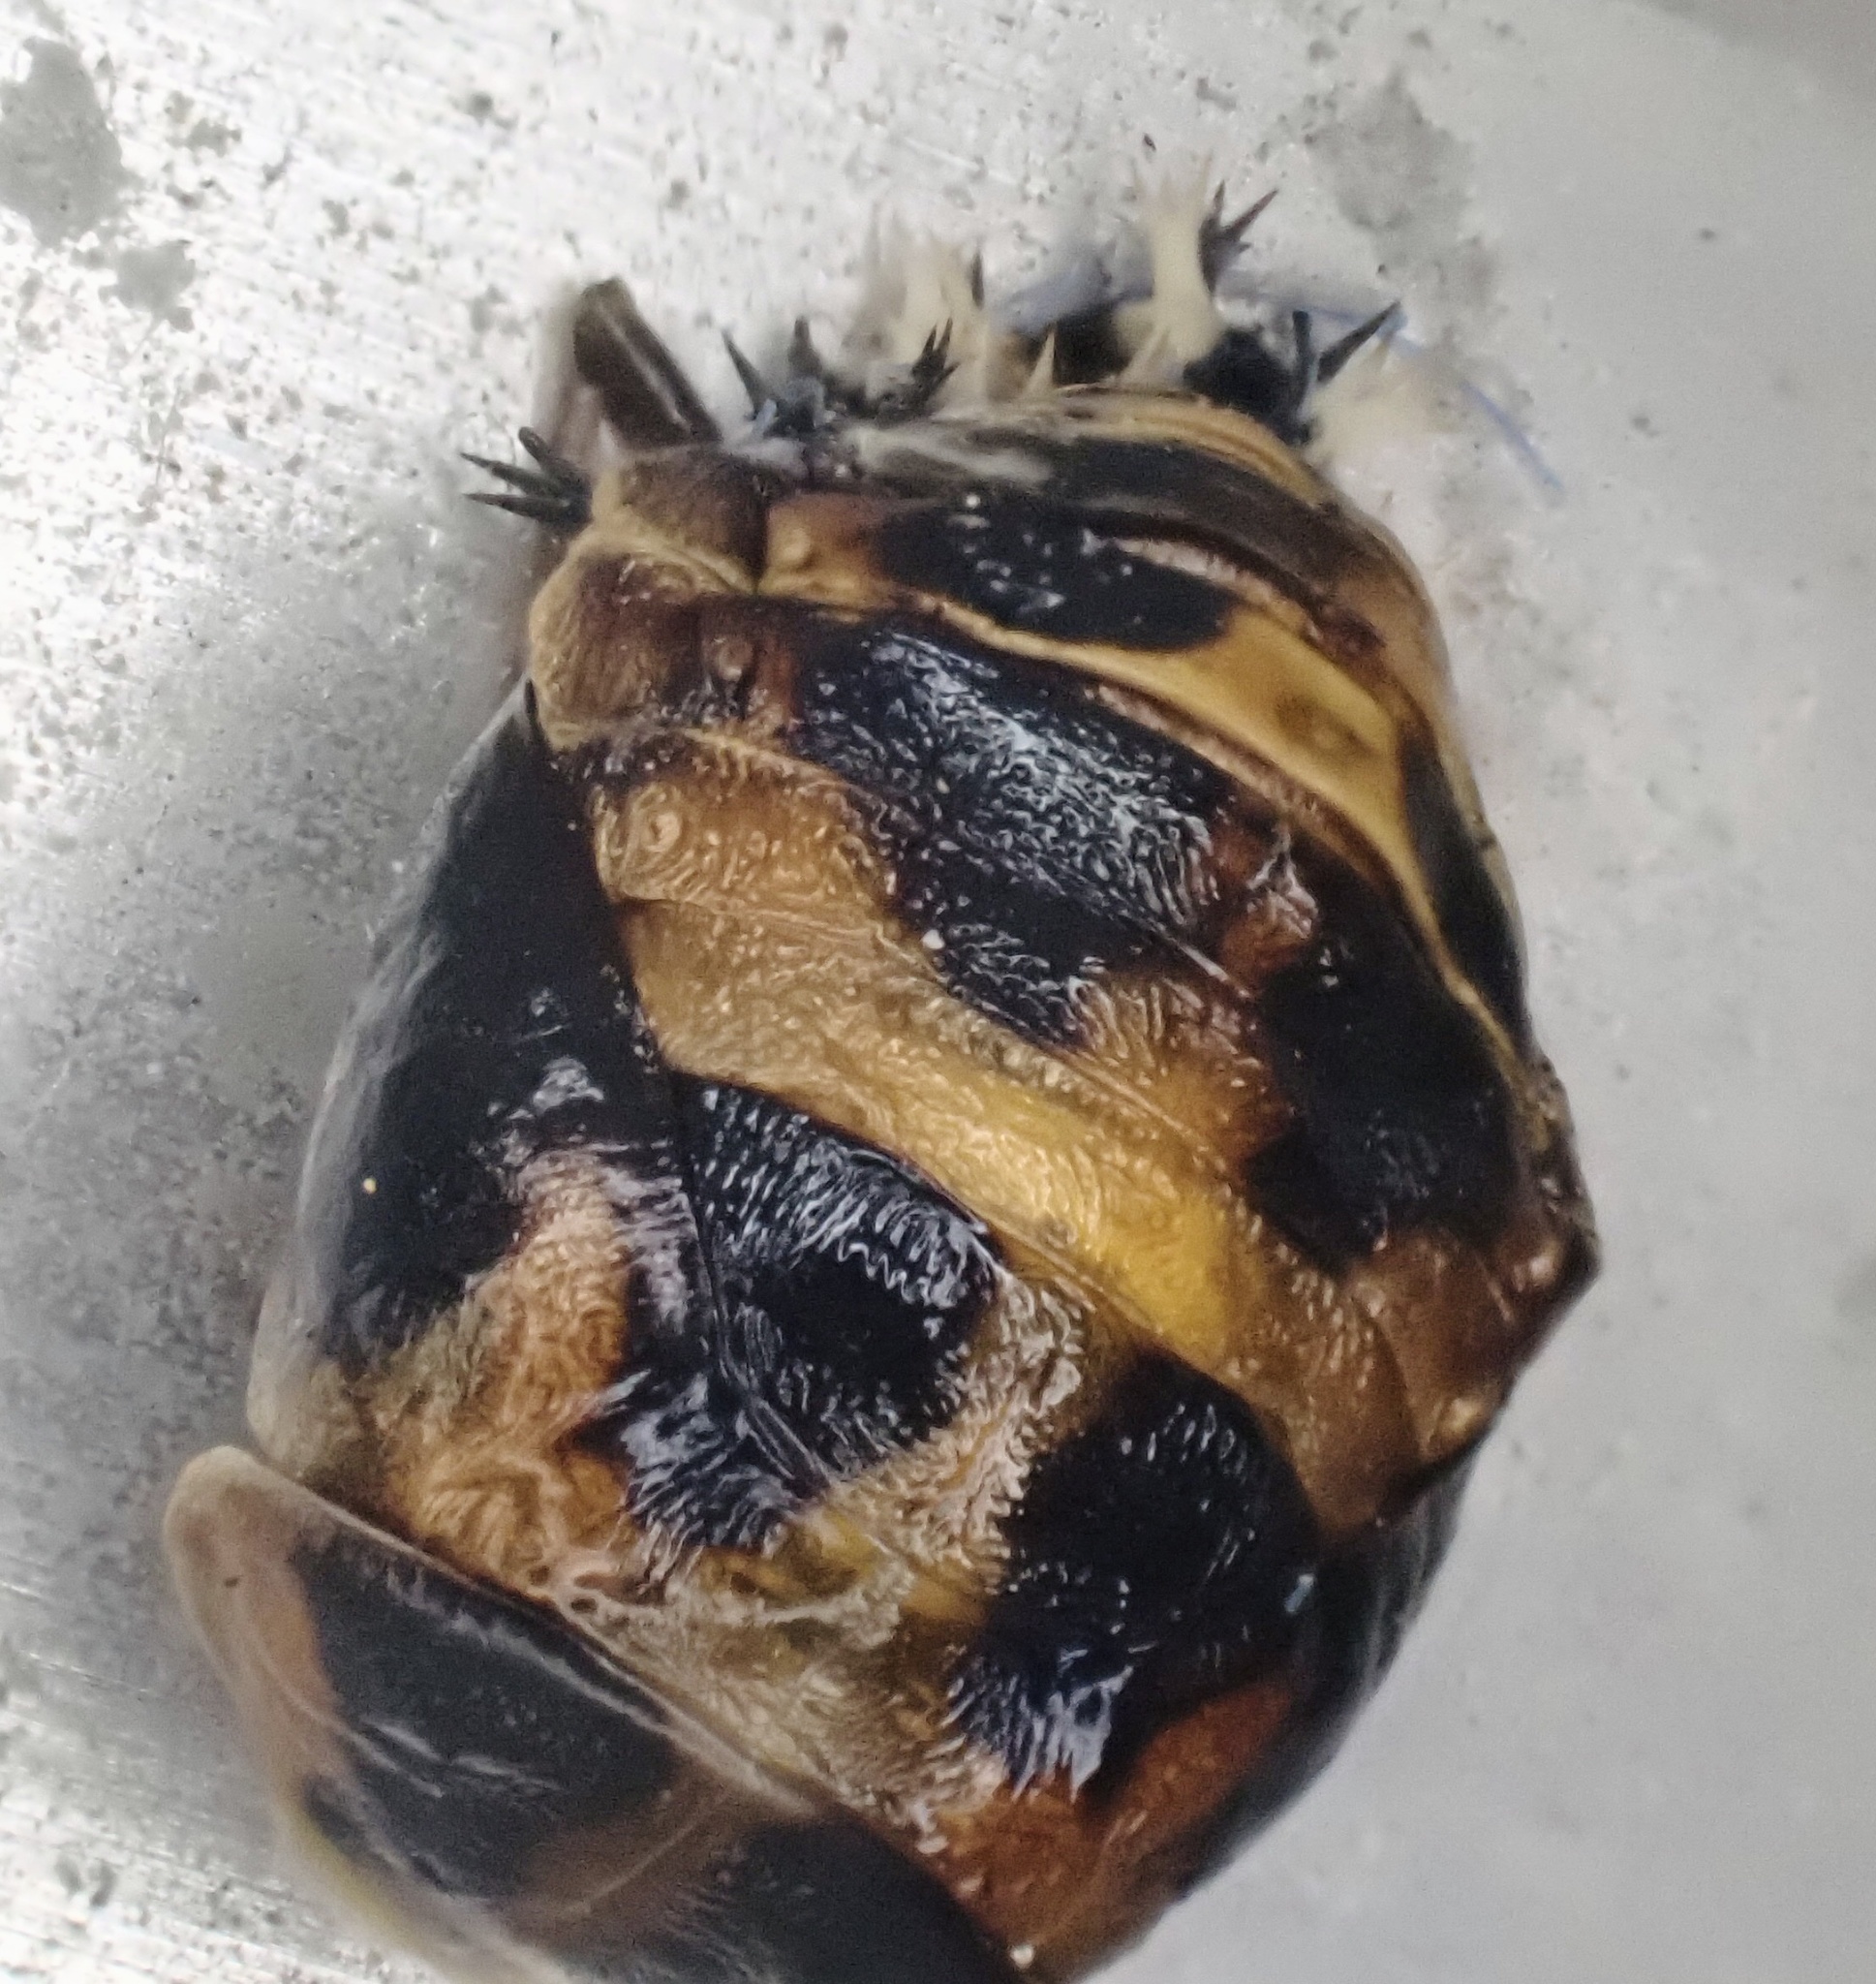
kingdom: Animalia
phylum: Arthropoda
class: Insecta
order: Coleoptera
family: Coccinellidae
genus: Harmonia
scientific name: Harmonia axyridis
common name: Harlequin ladybird
